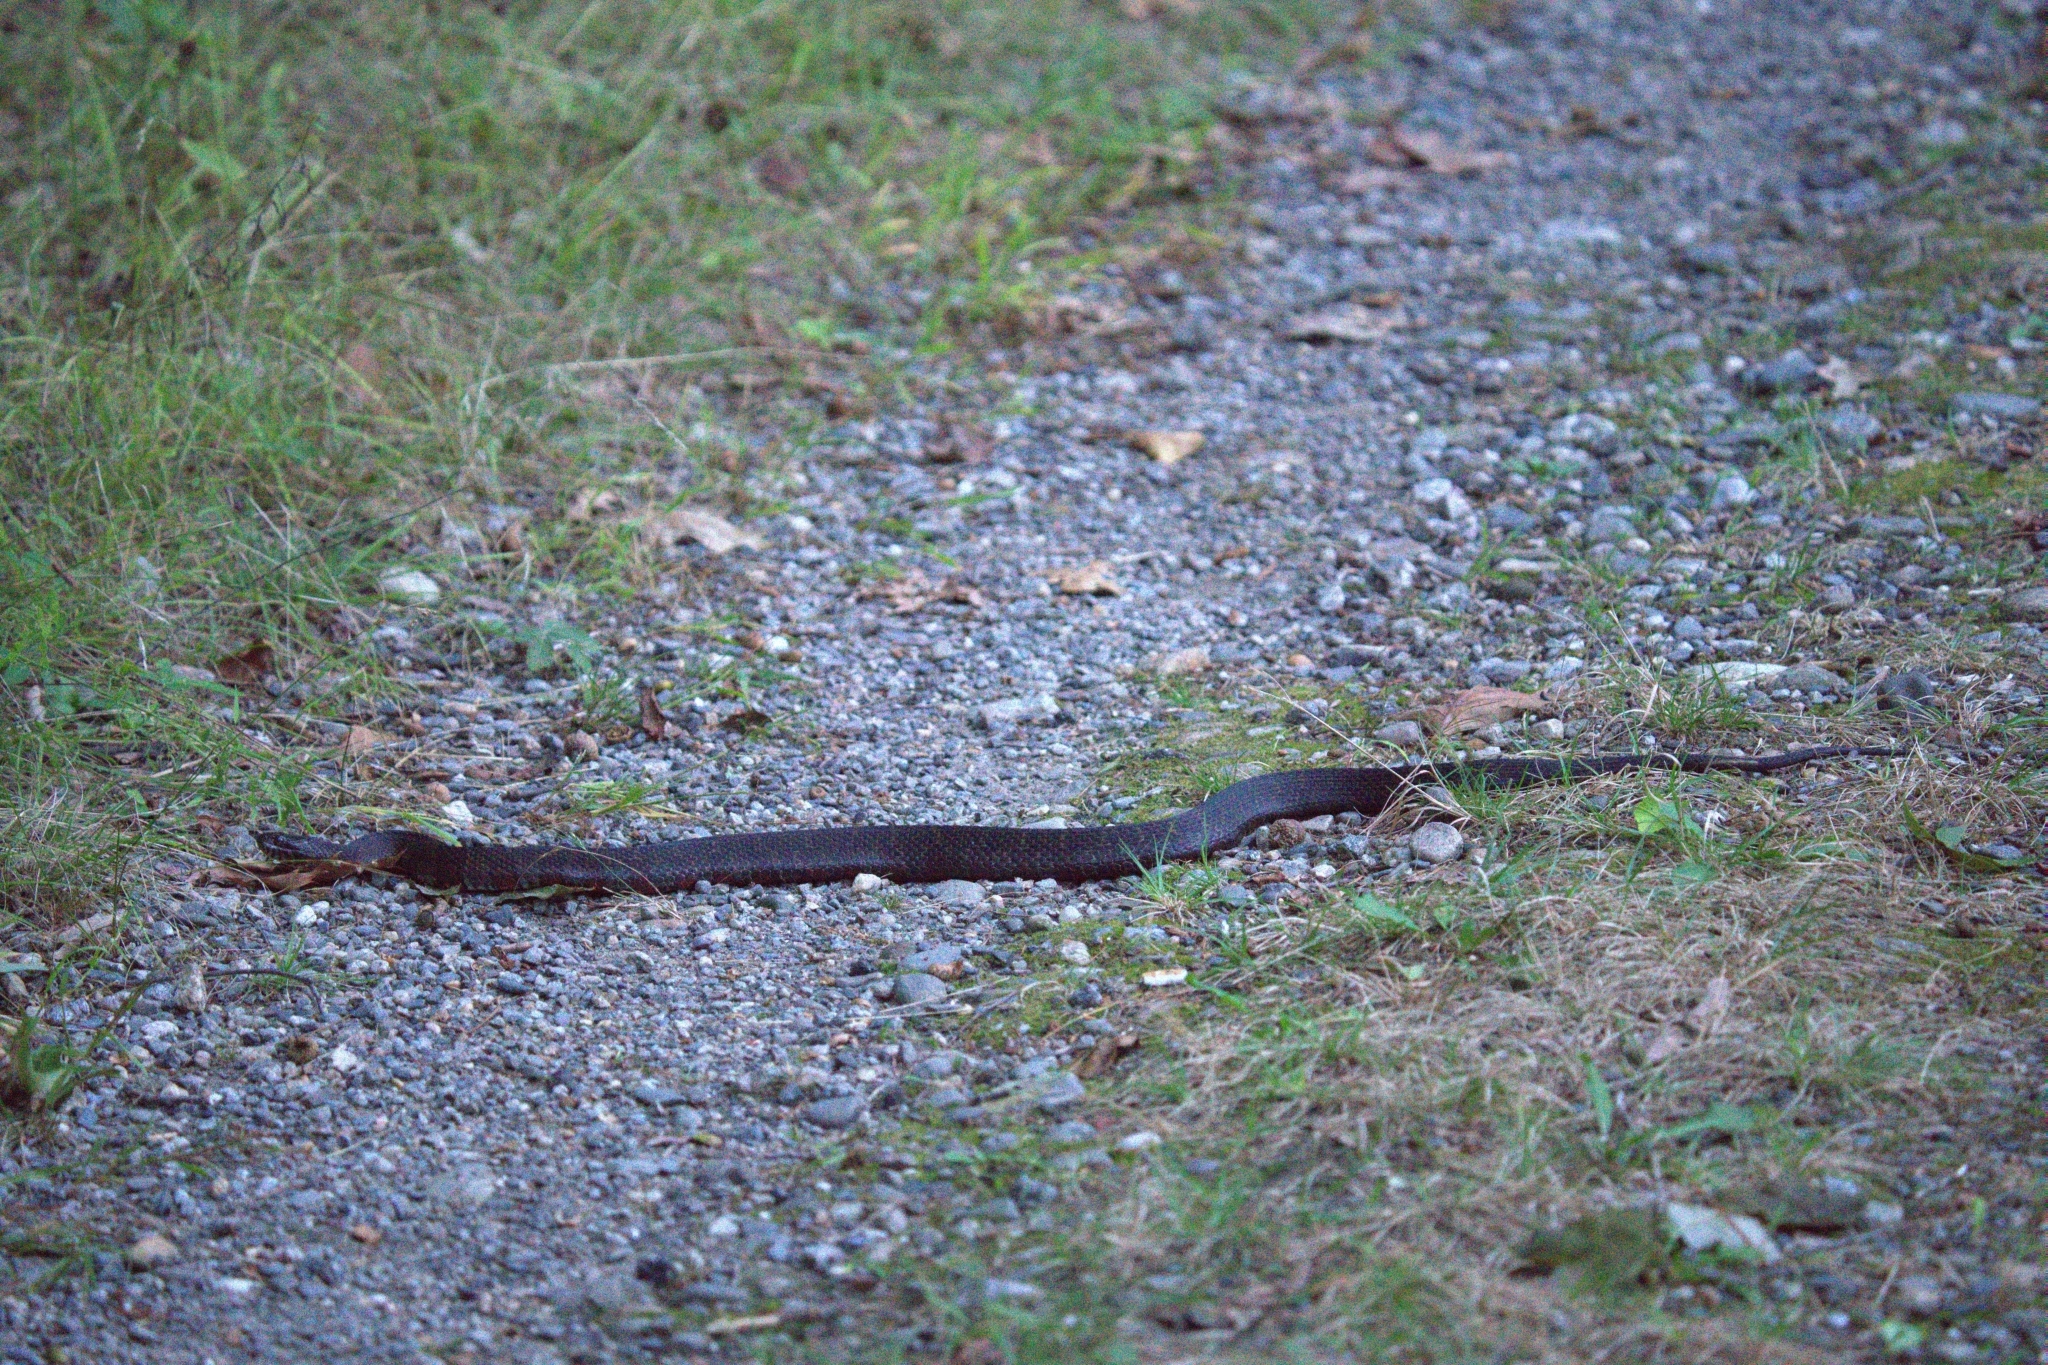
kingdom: Animalia
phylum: Chordata
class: Squamata
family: Colubridae
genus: Nerodia
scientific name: Nerodia sipedon
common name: Northern water snake
